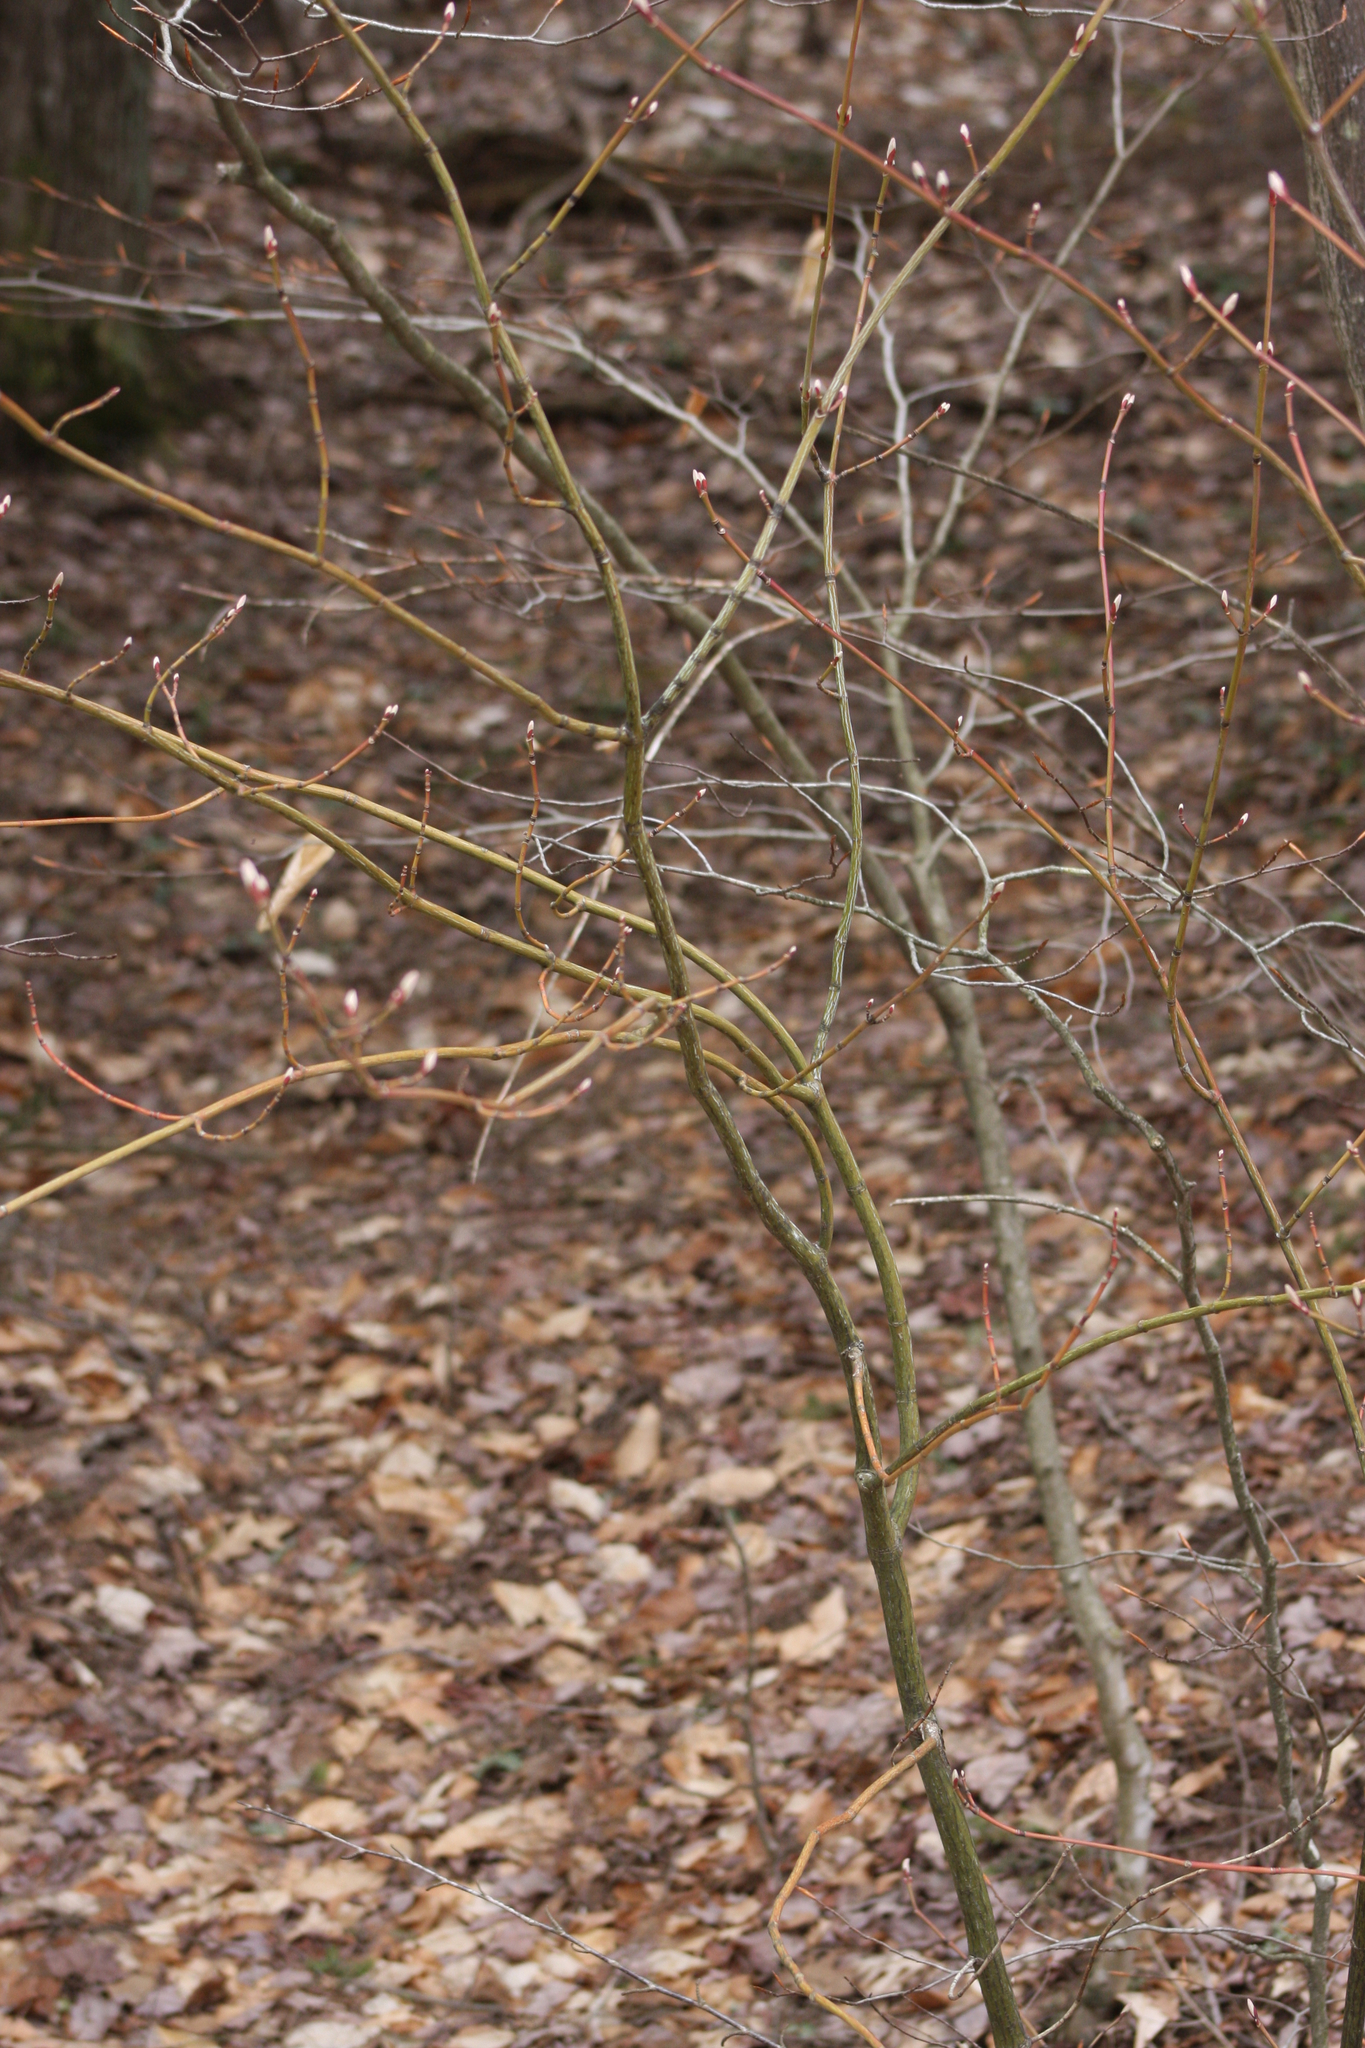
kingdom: Plantae
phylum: Tracheophyta
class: Magnoliopsida
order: Sapindales
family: Sapindaceae
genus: Acer
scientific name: Acer pensylvanicum
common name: Moosewood
